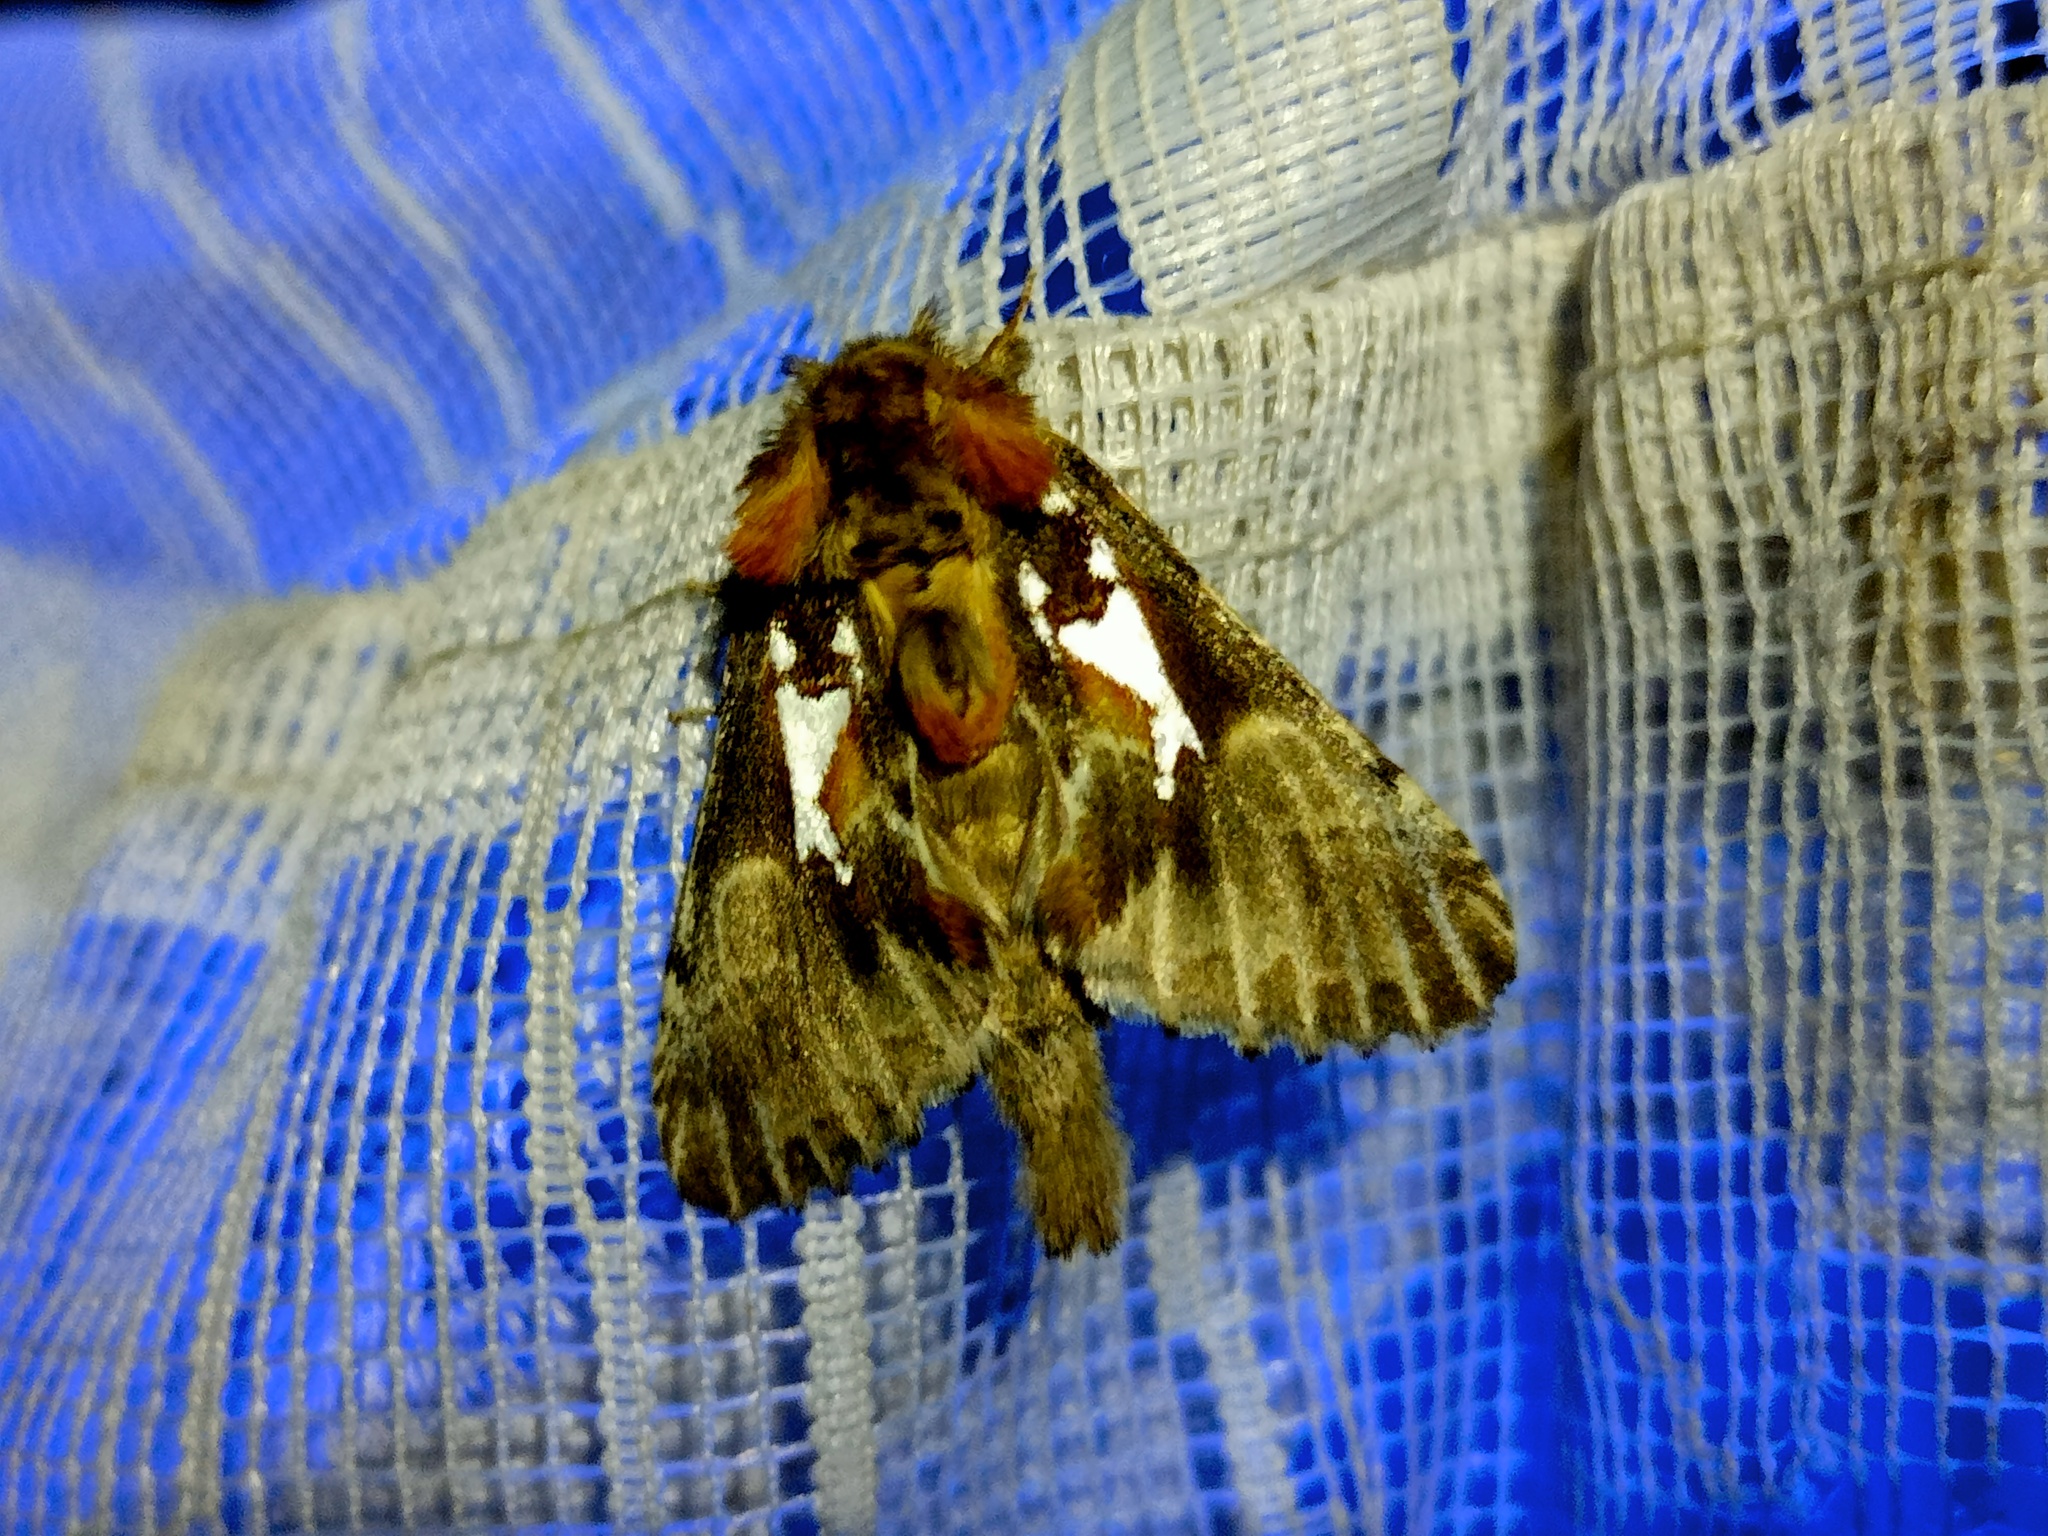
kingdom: Animalia
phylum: Arthropoda
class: Insecta
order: Lepidoptera
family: Notodontidae
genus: Spatalia
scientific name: Spatalia argentina
